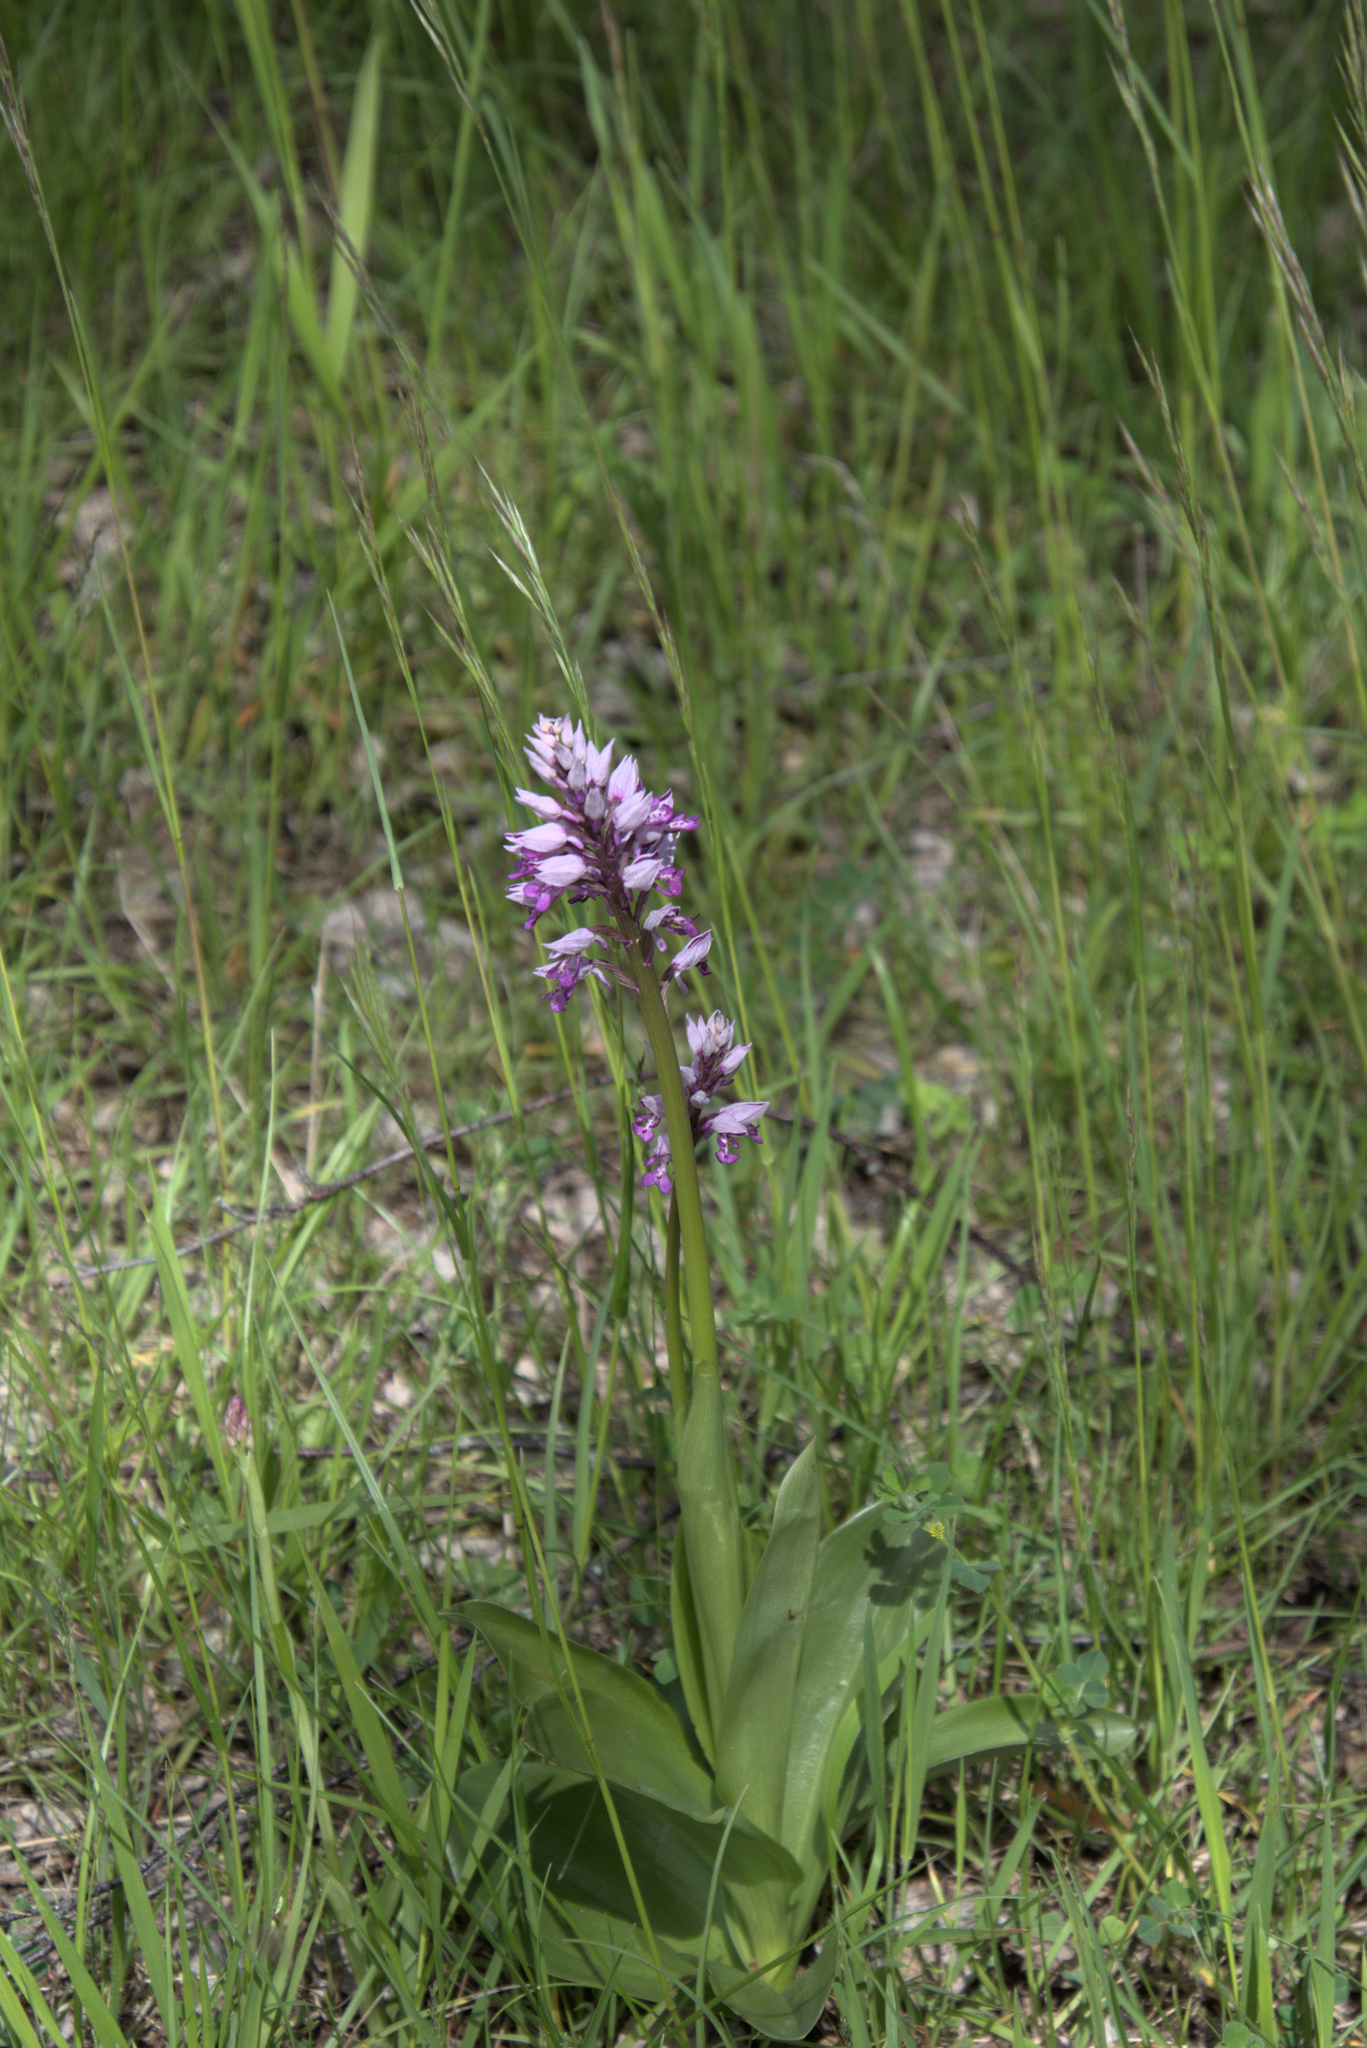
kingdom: Plantae
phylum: Tracheophyta
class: Liliopsida
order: Asparagales
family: Orchidaceae
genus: Orchis
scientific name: Orchis militaris
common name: Military orchid
